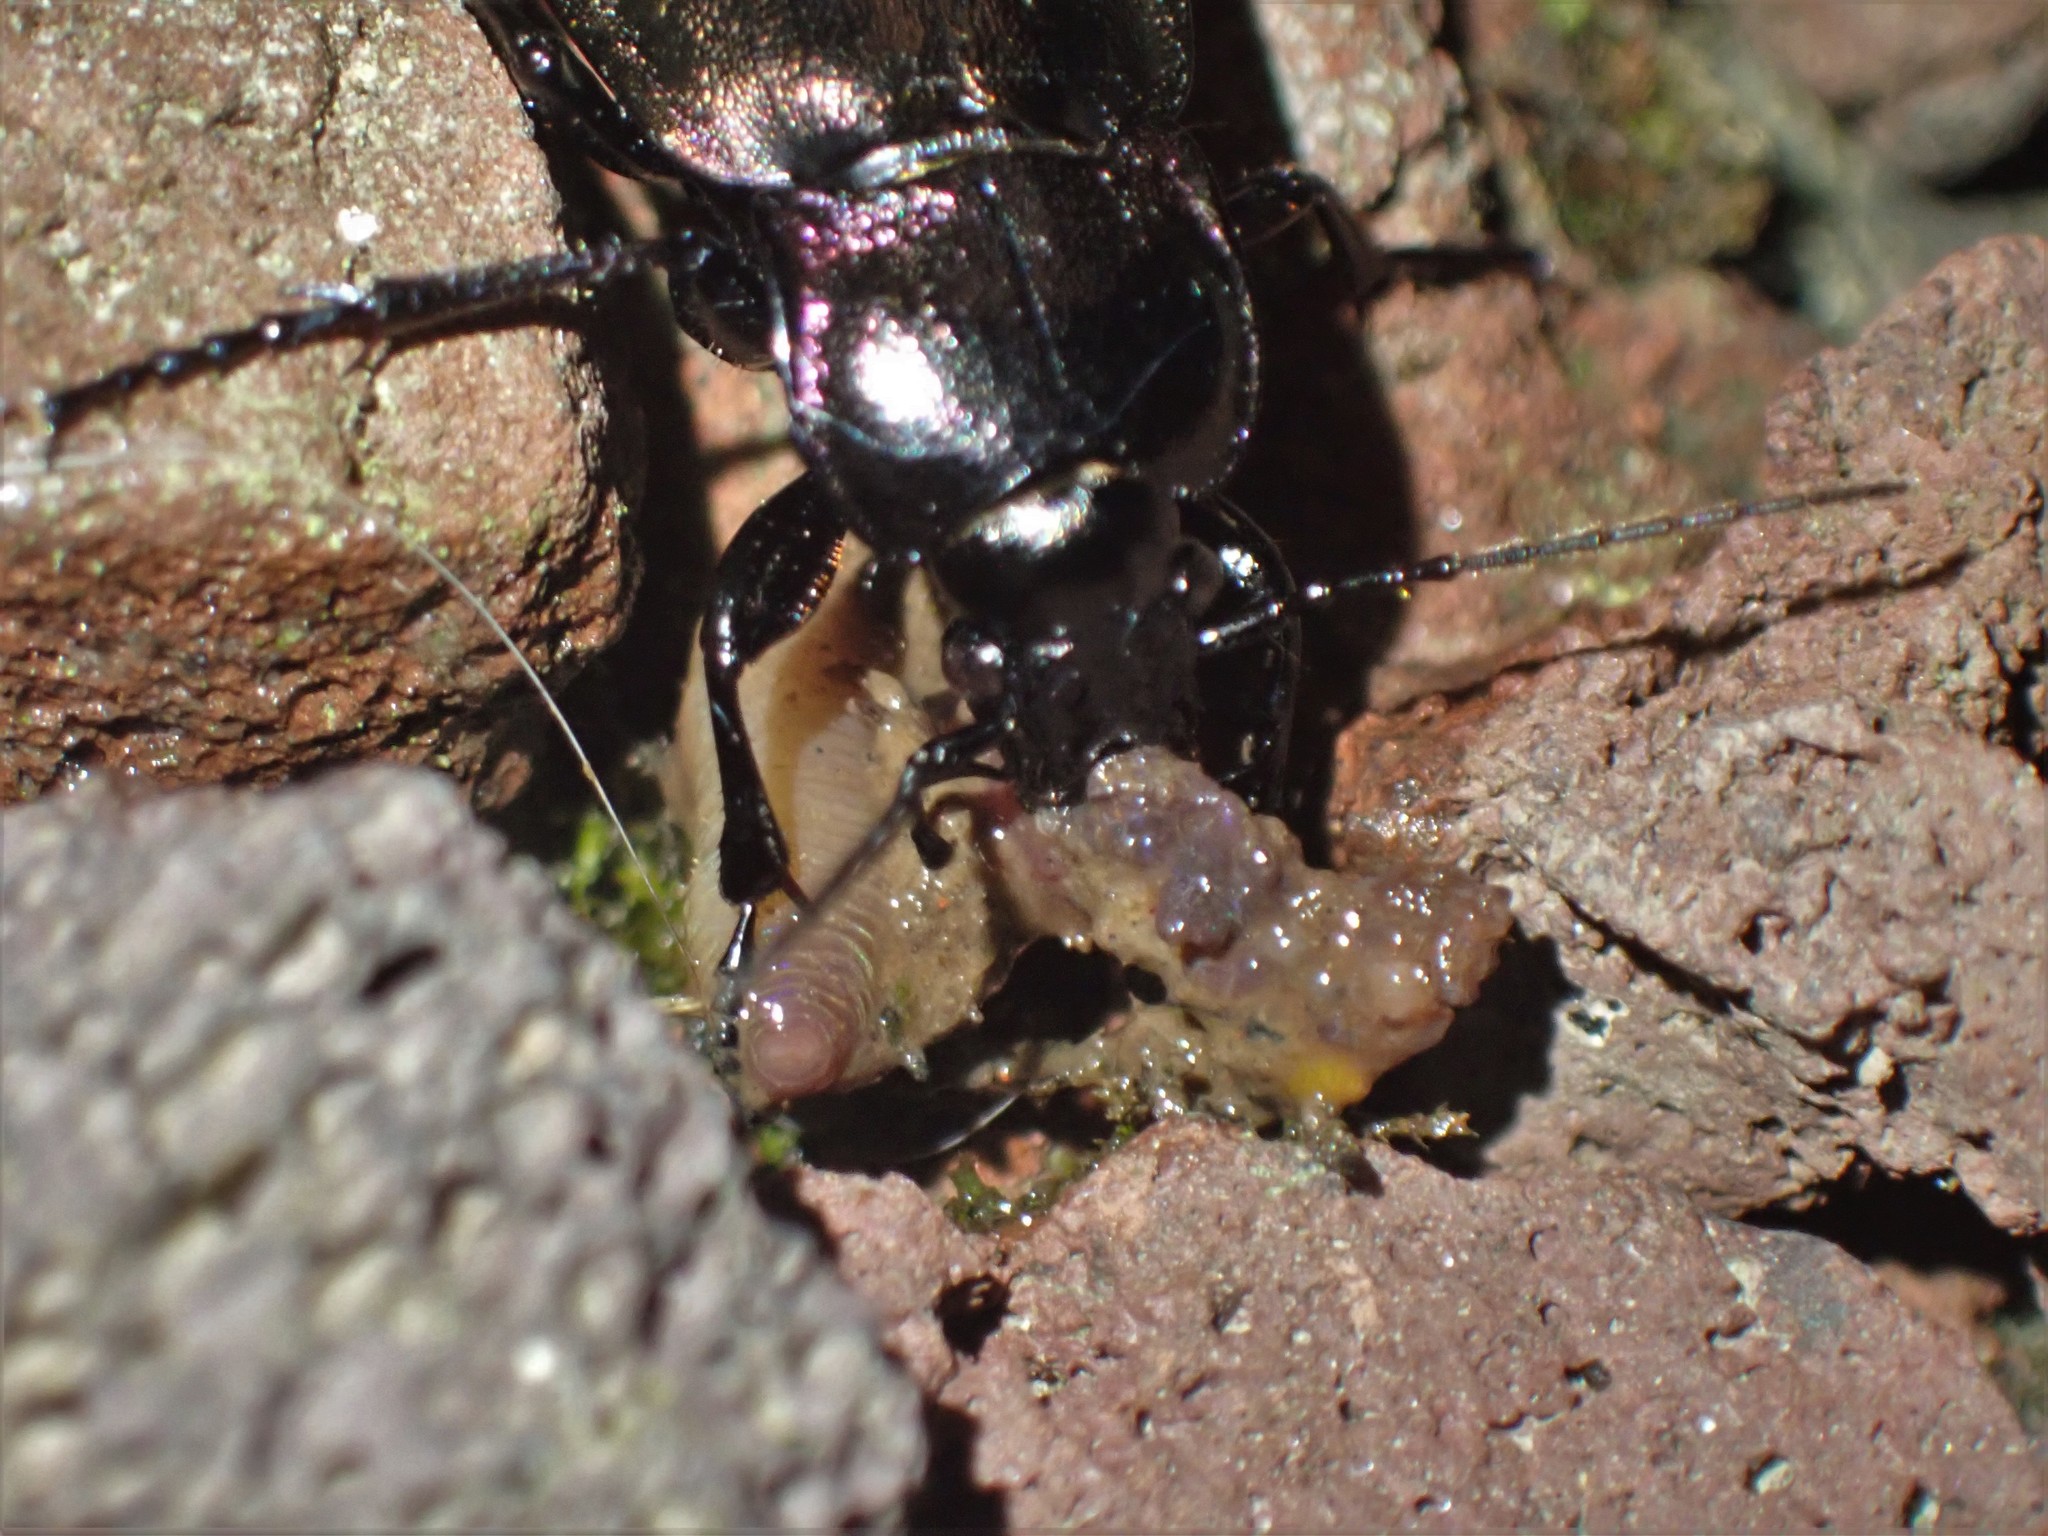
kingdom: Animalia
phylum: Arthropoda
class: Insecta
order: Coleoptera
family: Carabidae
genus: Carabus
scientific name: Carabus nemoralis
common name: European ground beetle
